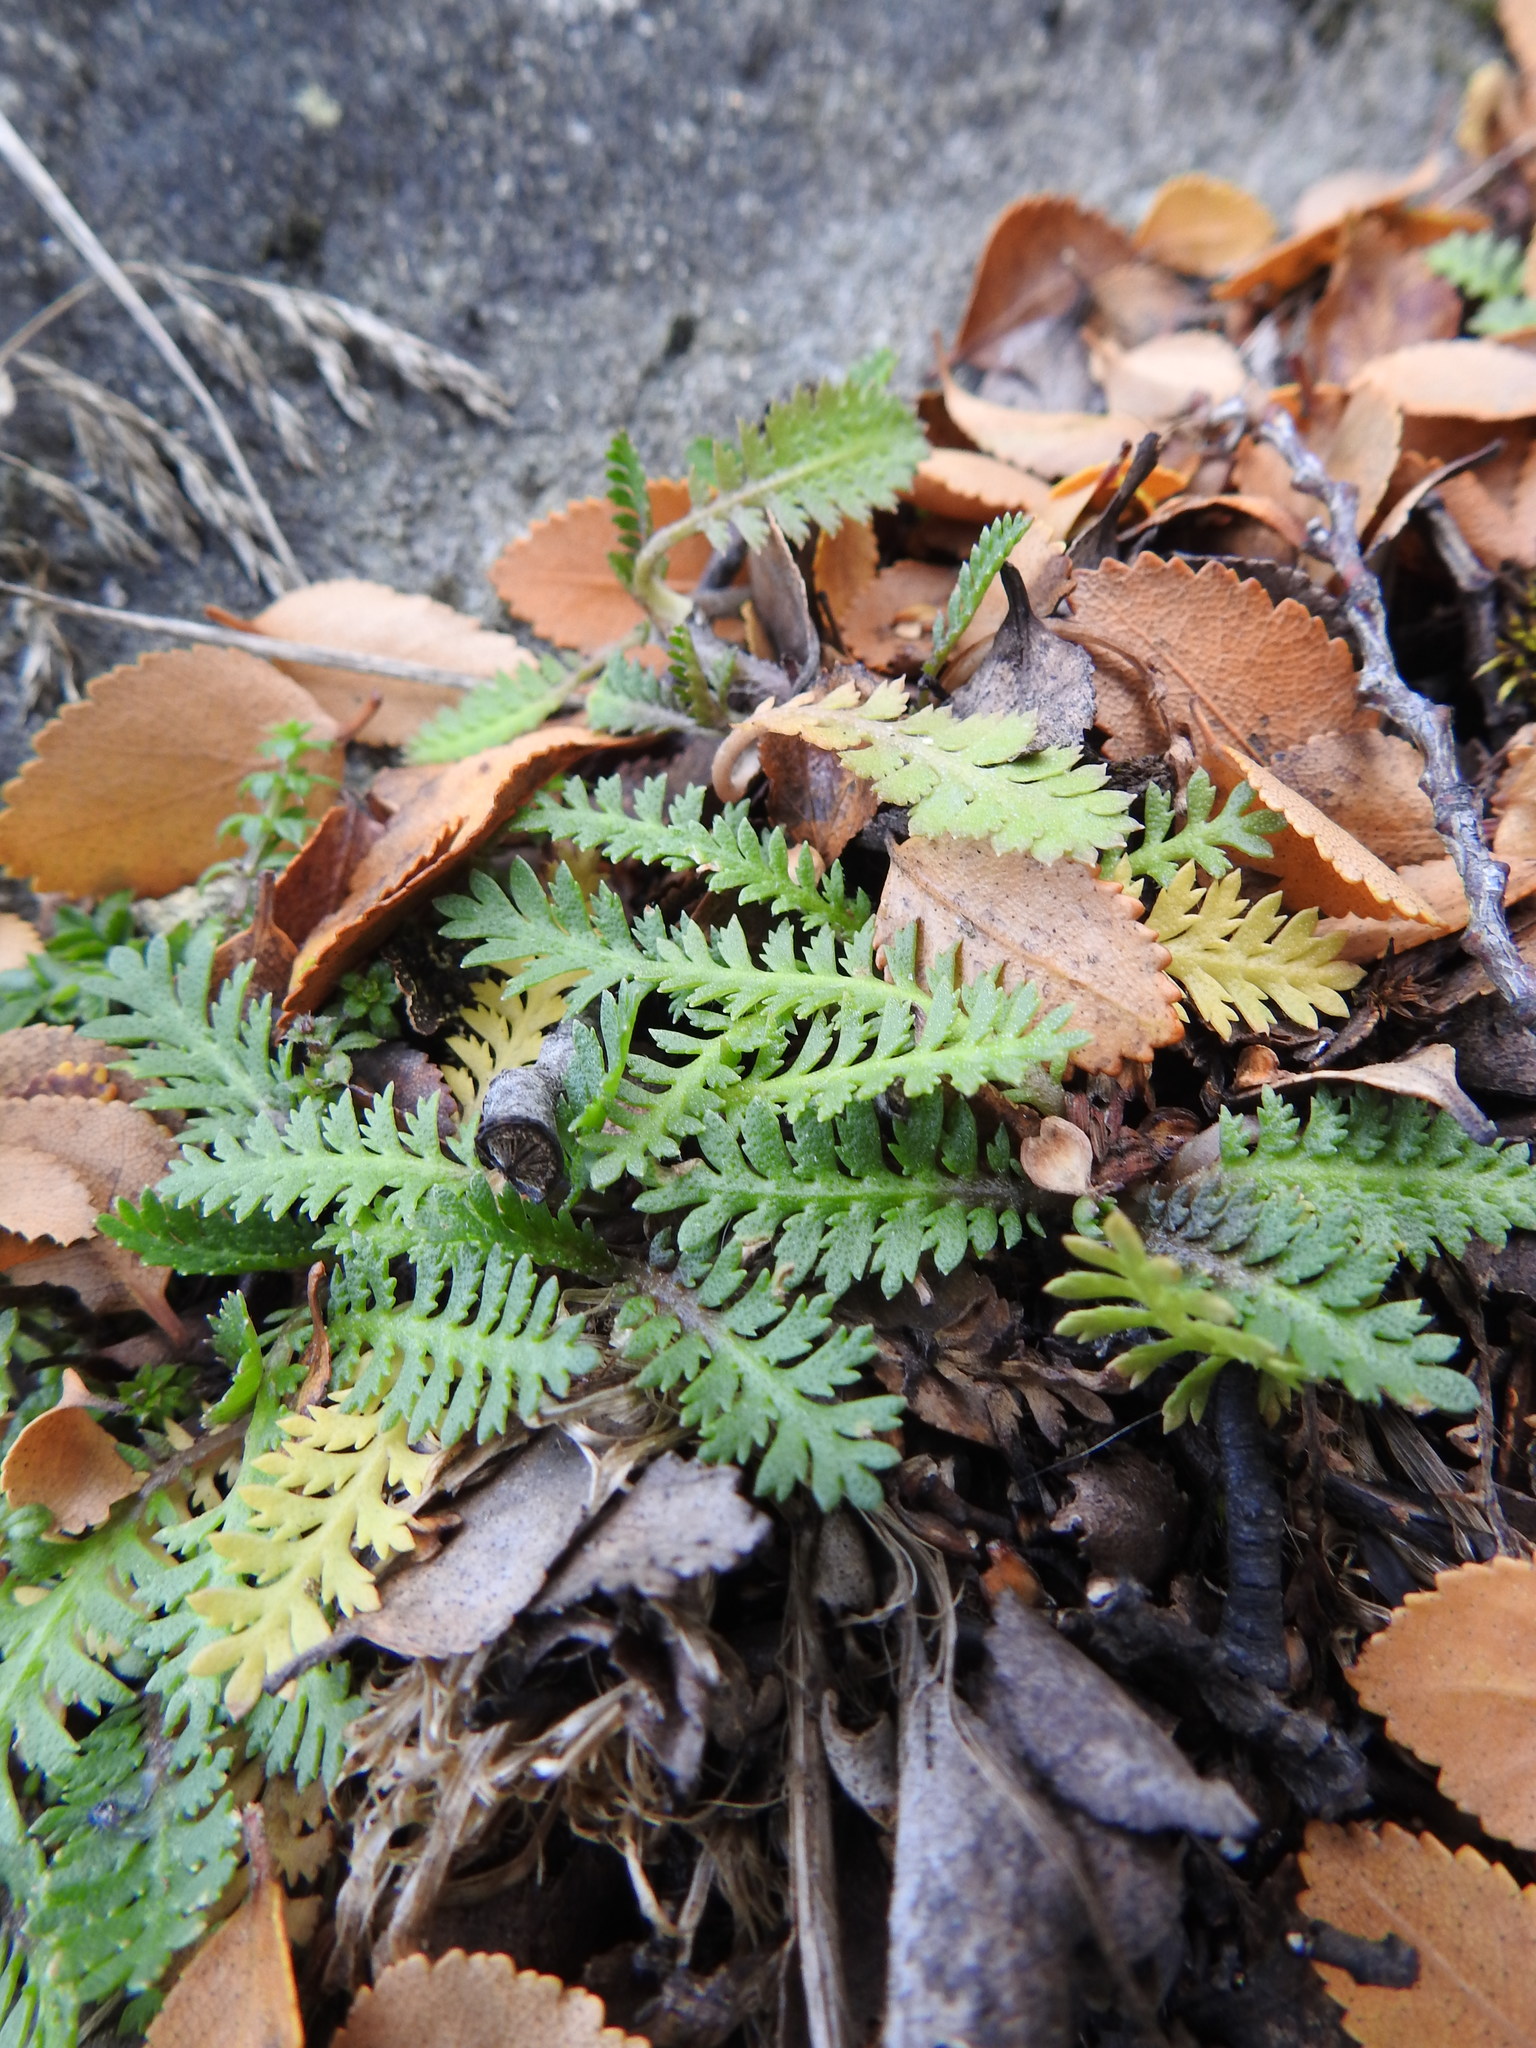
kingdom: Plantae
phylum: Tracheophyta
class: Magnoliopsida
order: Asterales
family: Asteraceae
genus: Leptinella
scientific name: Leptinella scariosa
